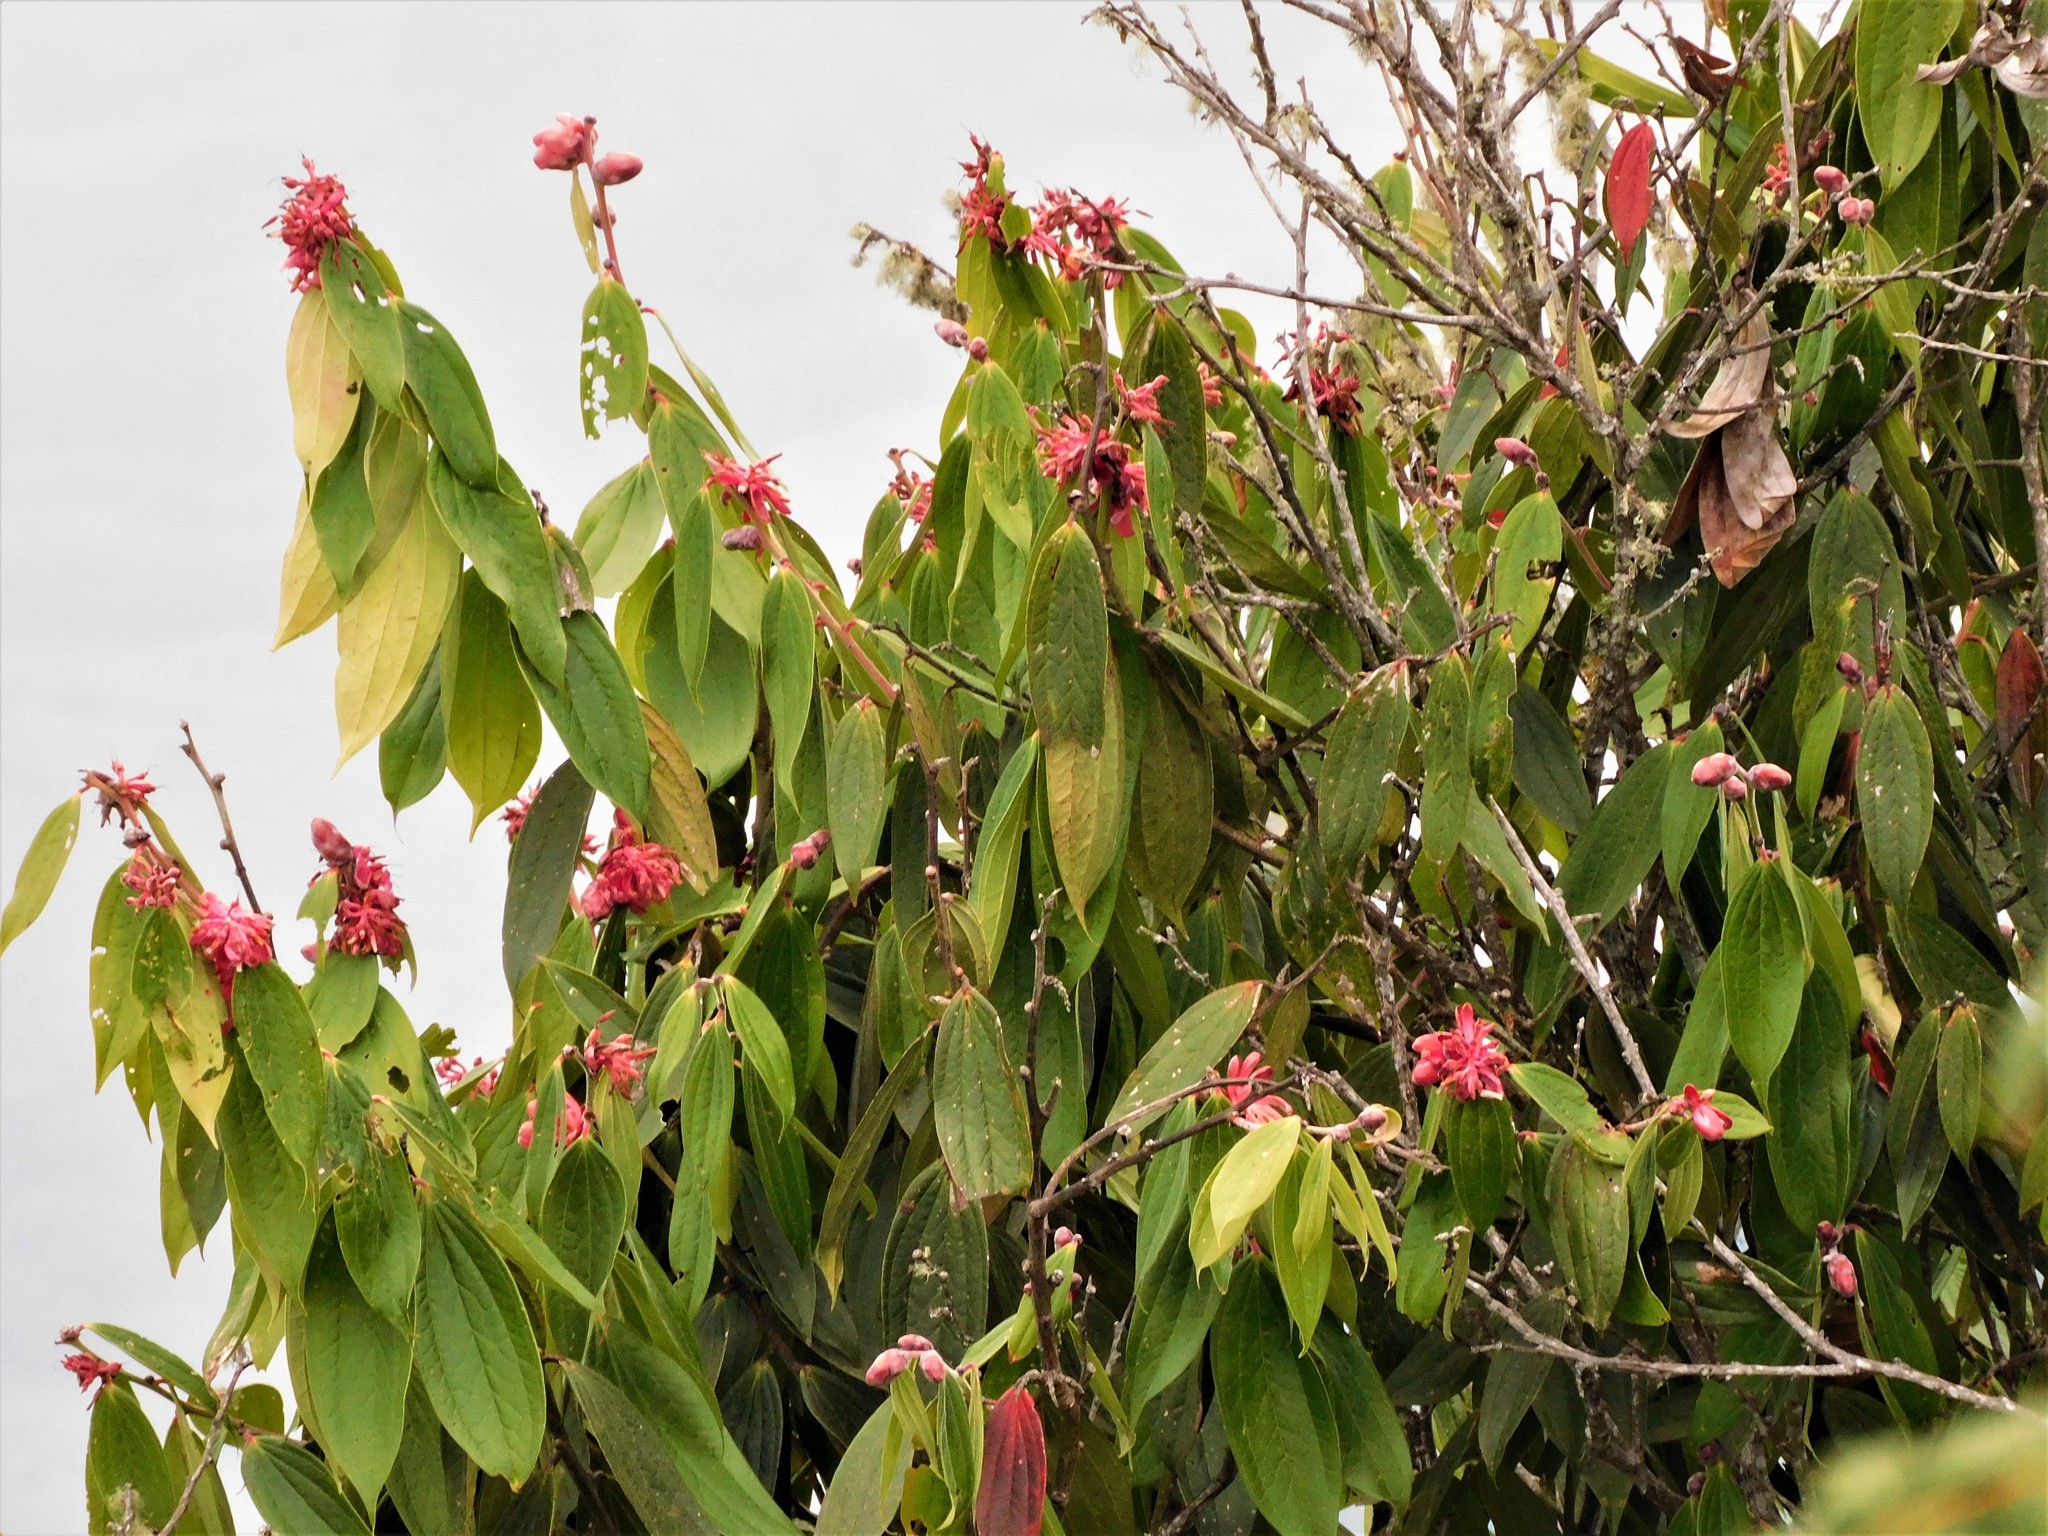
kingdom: Plantae
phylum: Tracheophyta
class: Magnoliopsida
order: Ericales
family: Ericaceae
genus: Cavendishia
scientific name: Cavendishia pubescens
